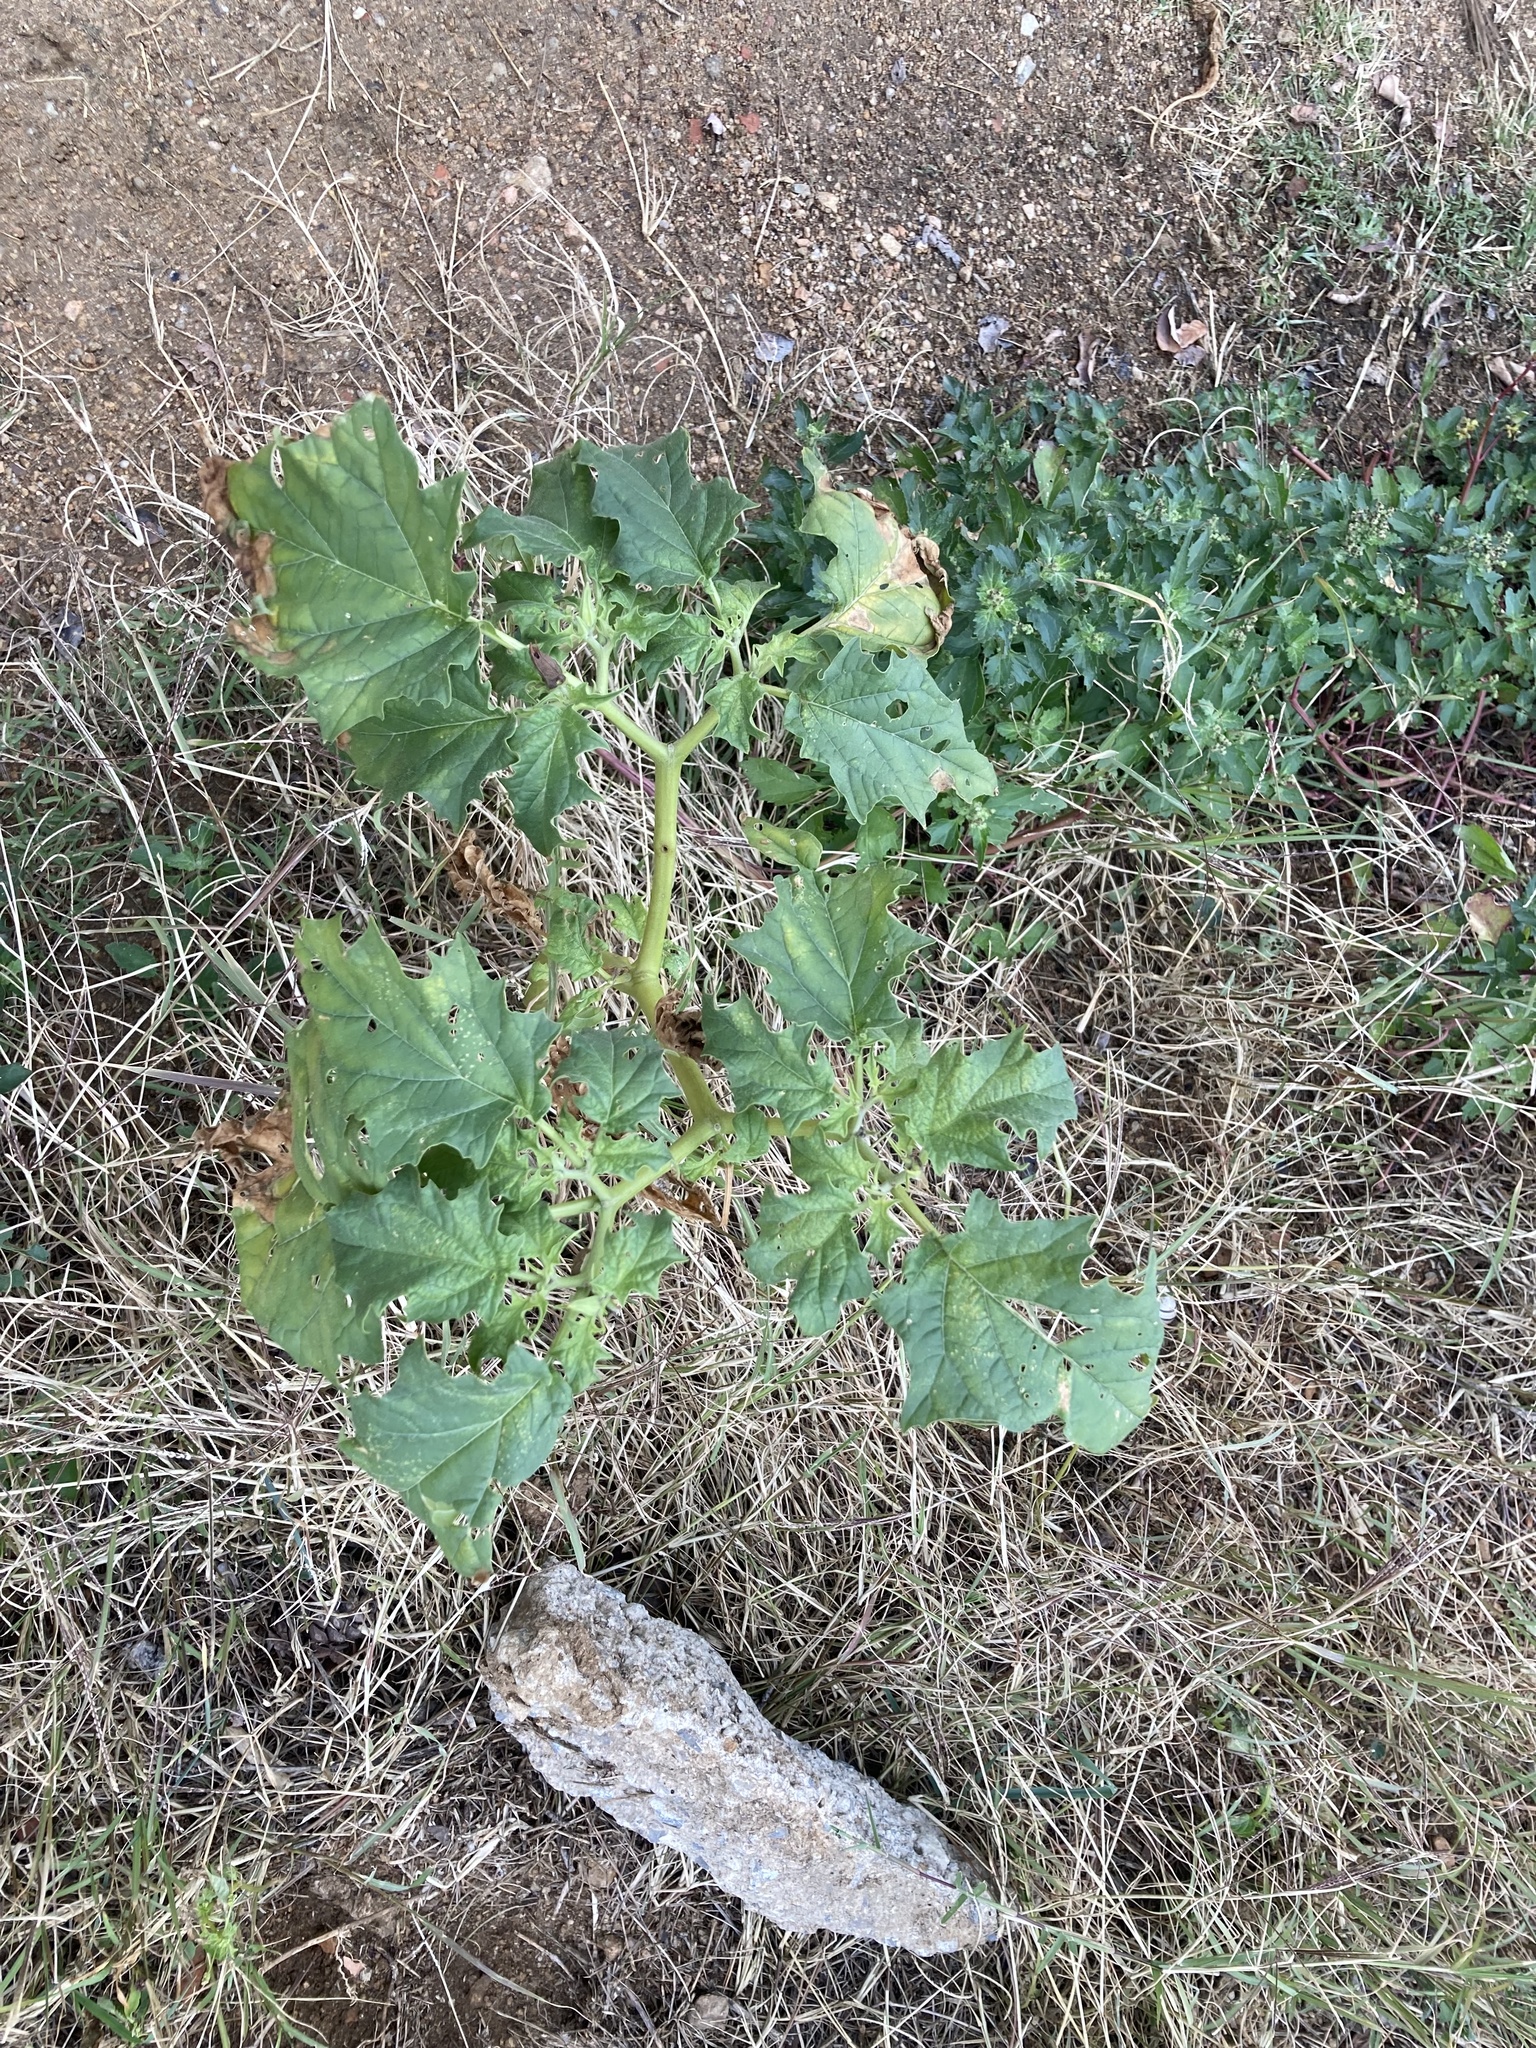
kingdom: Plantae
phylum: Tracheophyta
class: Magnoliopsida
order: Solanales
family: Solanaceae
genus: Datura
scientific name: Datura stramonium
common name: Thorn-apple
